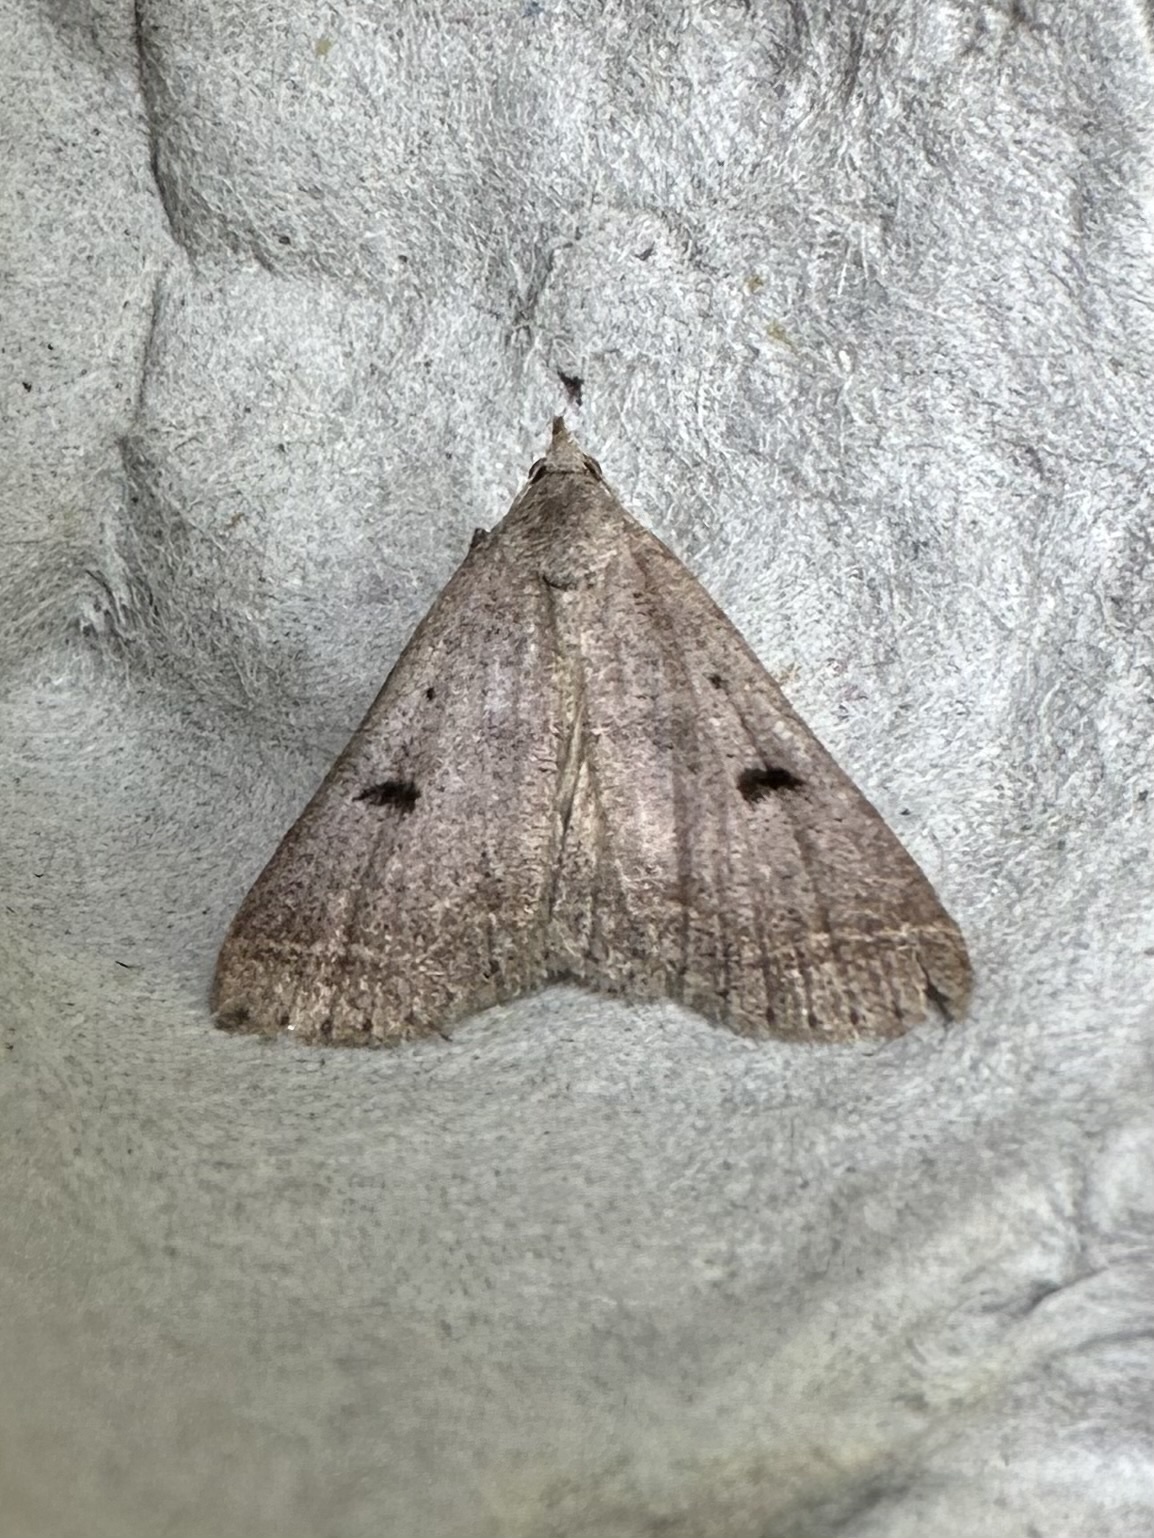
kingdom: Animalia
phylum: Arthropoda
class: Insecta
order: Lepidoptera
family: Erebidae
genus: Bleptina
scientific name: Bleptina caradrinalis
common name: Bent-winged owlet
